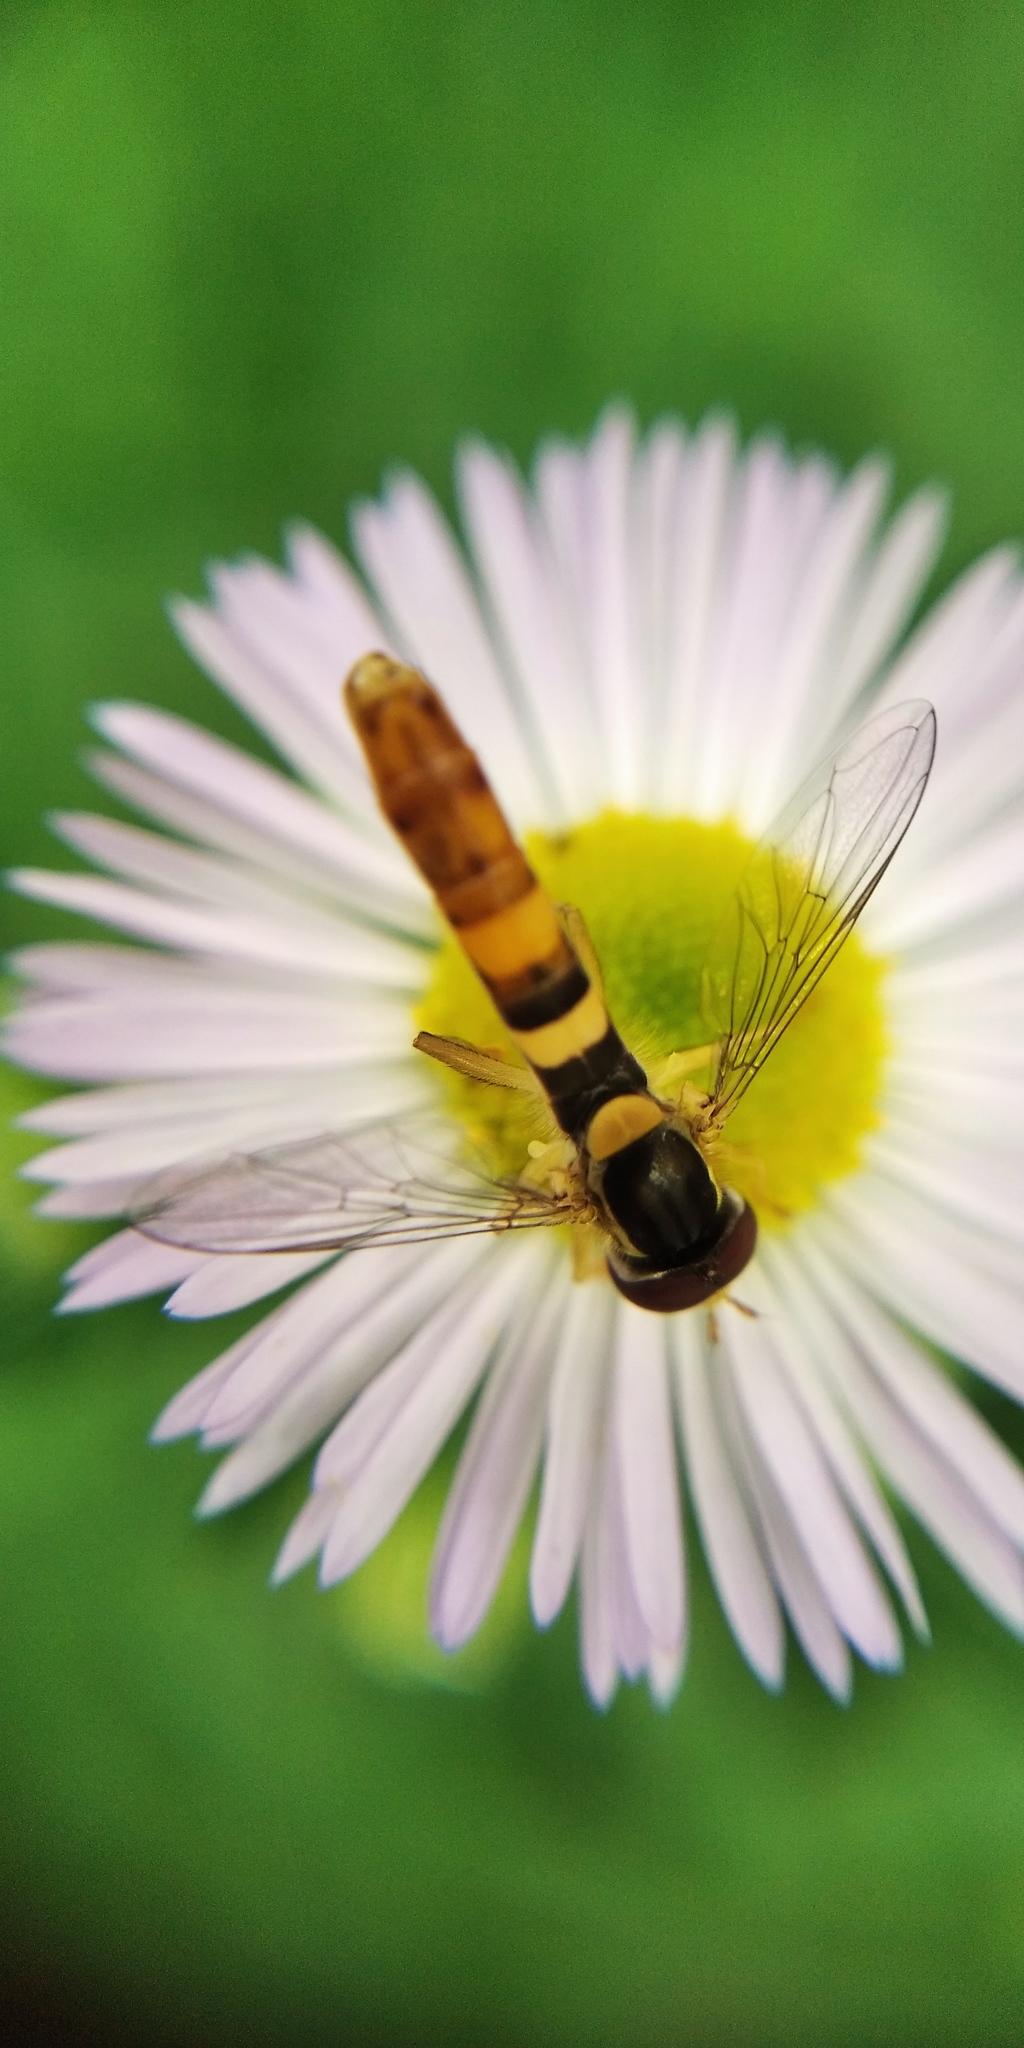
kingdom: Animalia
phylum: Arthropoda
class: Insecta
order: Diptera
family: Syrphidae
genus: Sphaerophoria
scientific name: Sphaerophoria scripta
